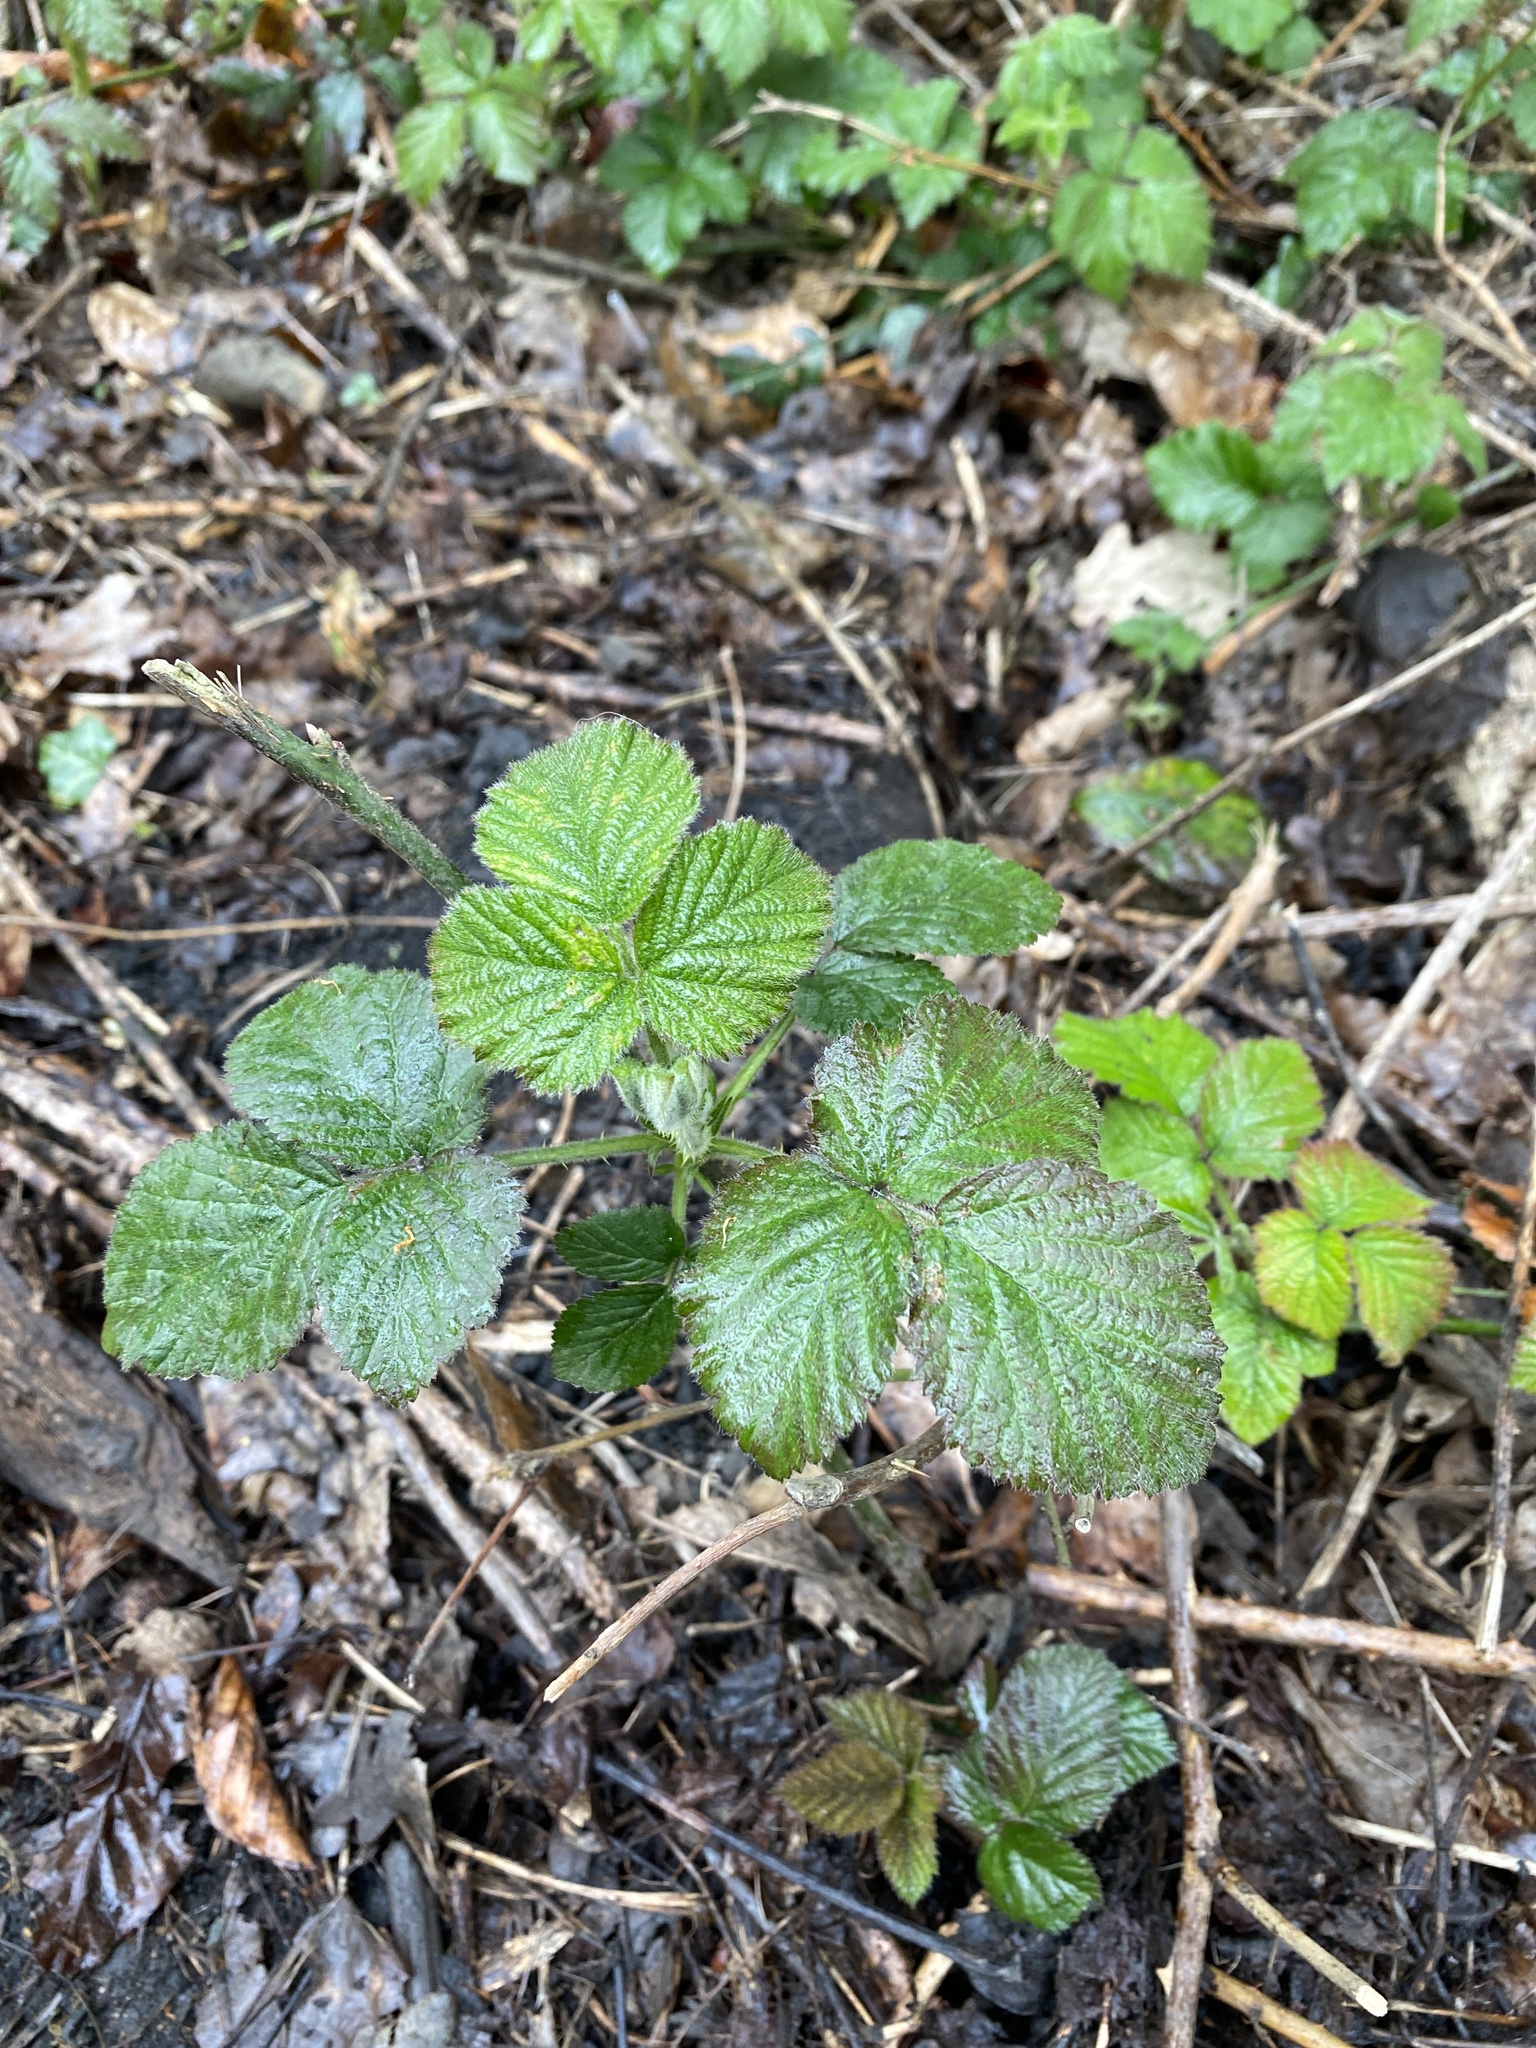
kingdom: Plantae
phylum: Tracheophyta
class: Magnoliopsida
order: Rosales
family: Rosaceae
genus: Rubus
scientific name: Rubus
